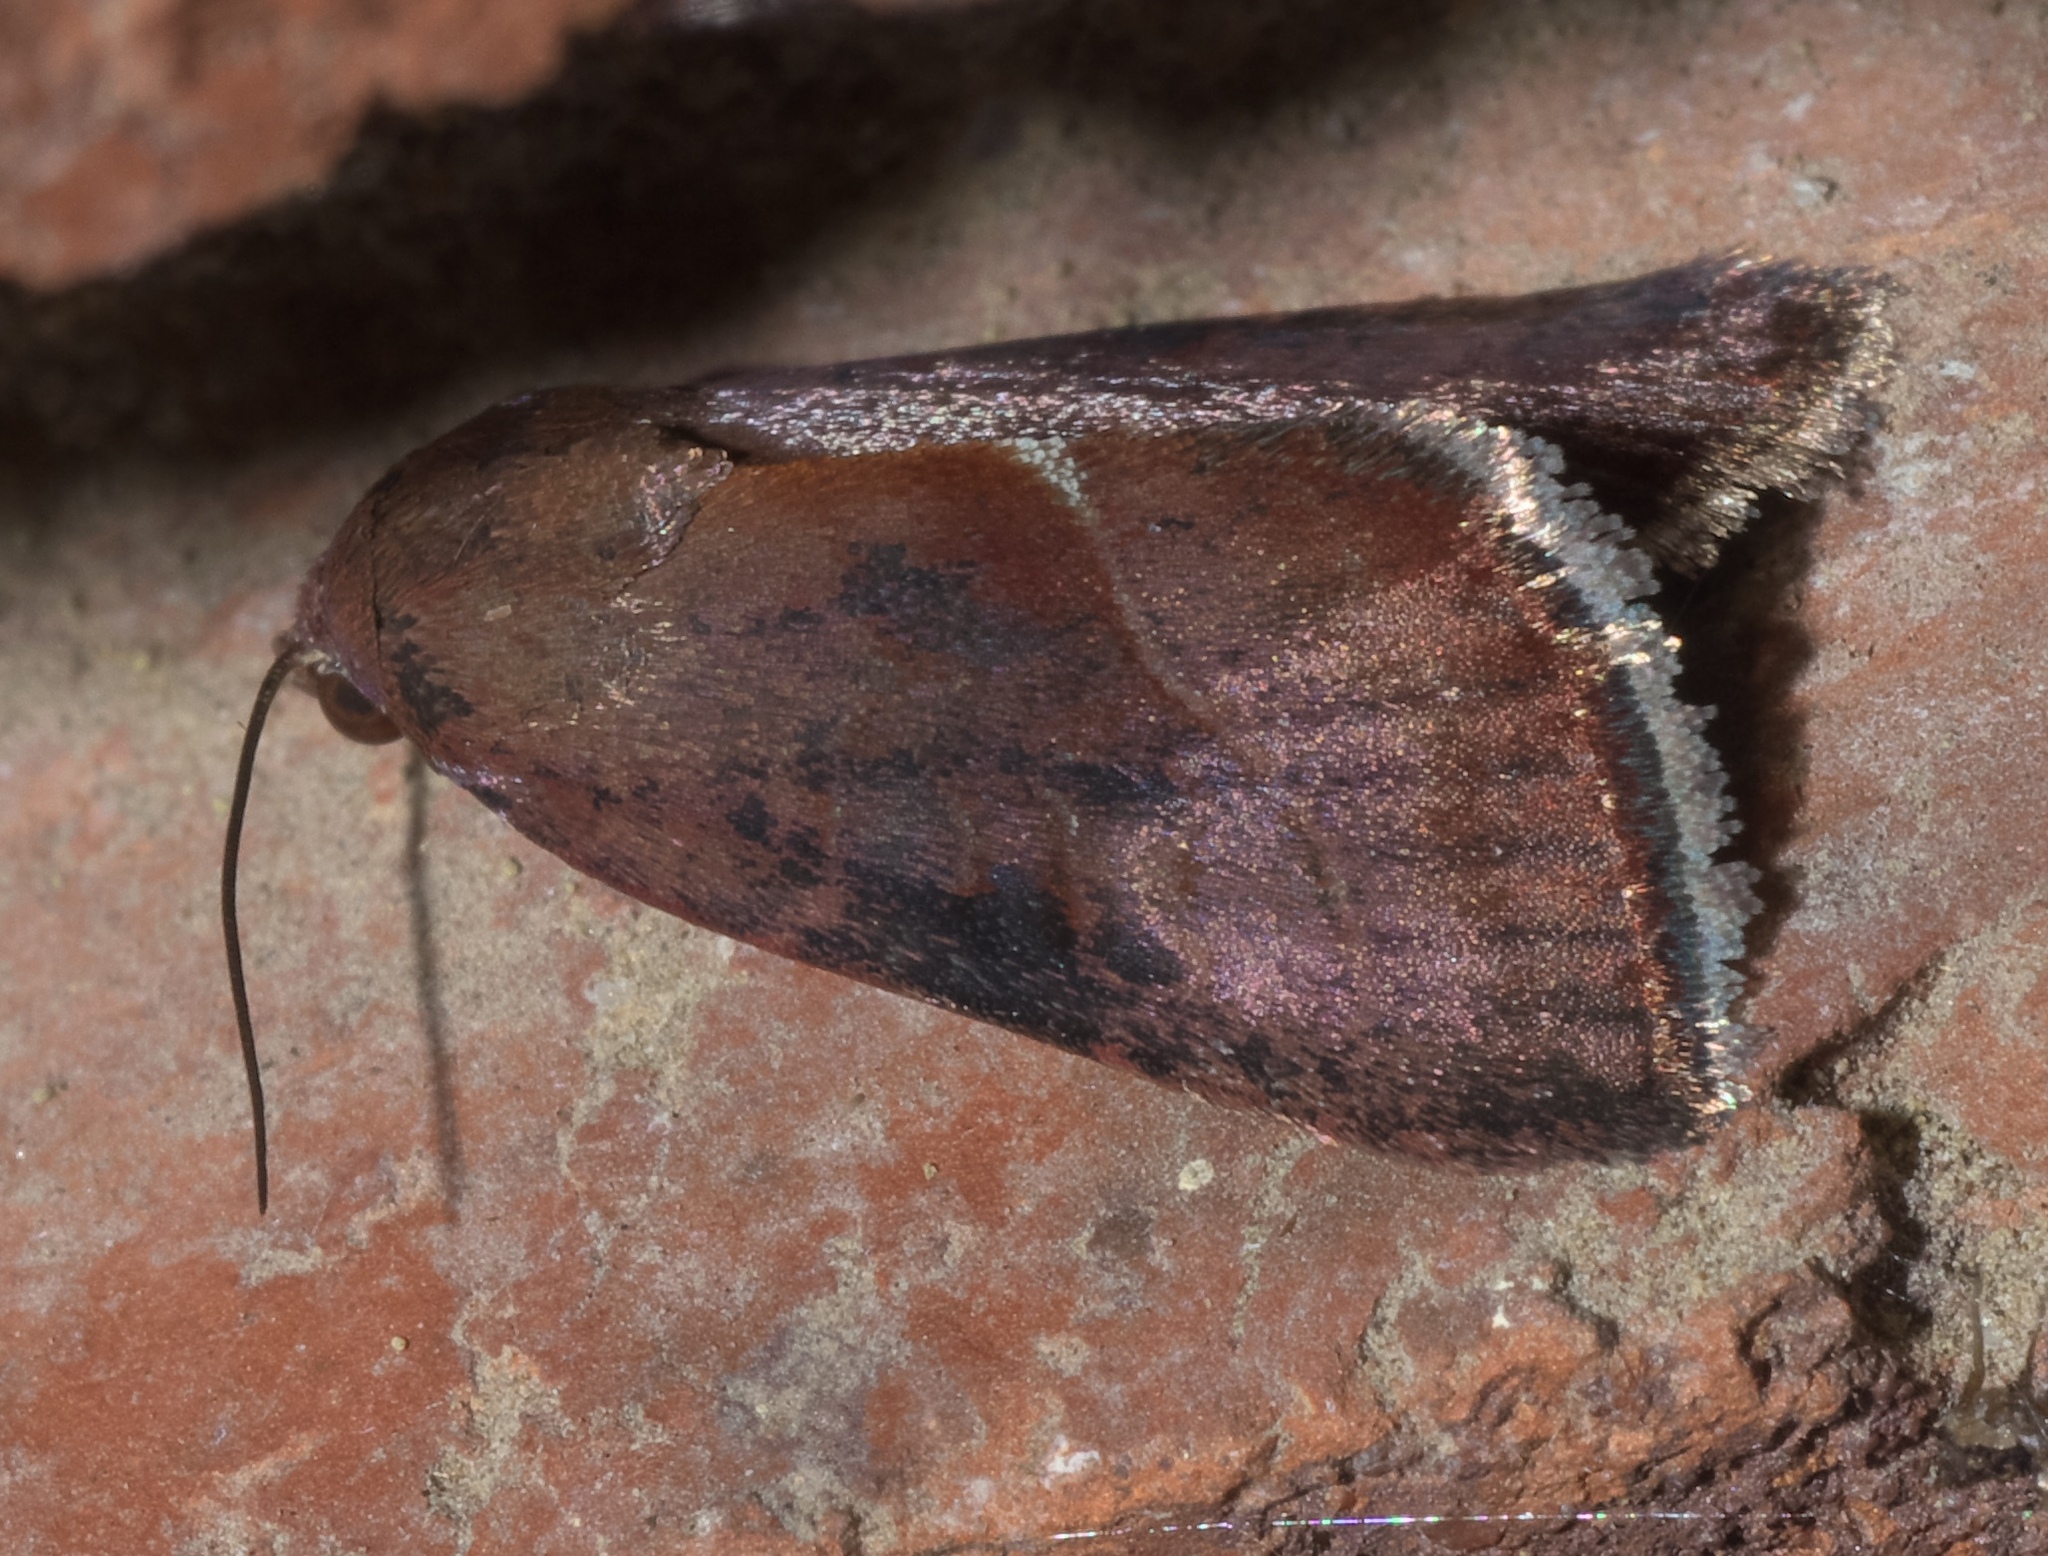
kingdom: Animalia
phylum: Arthropoda
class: Insecta
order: Lepidoptera
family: Noctuidae
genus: Galgula
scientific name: Galgula partita
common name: Wedgeling
